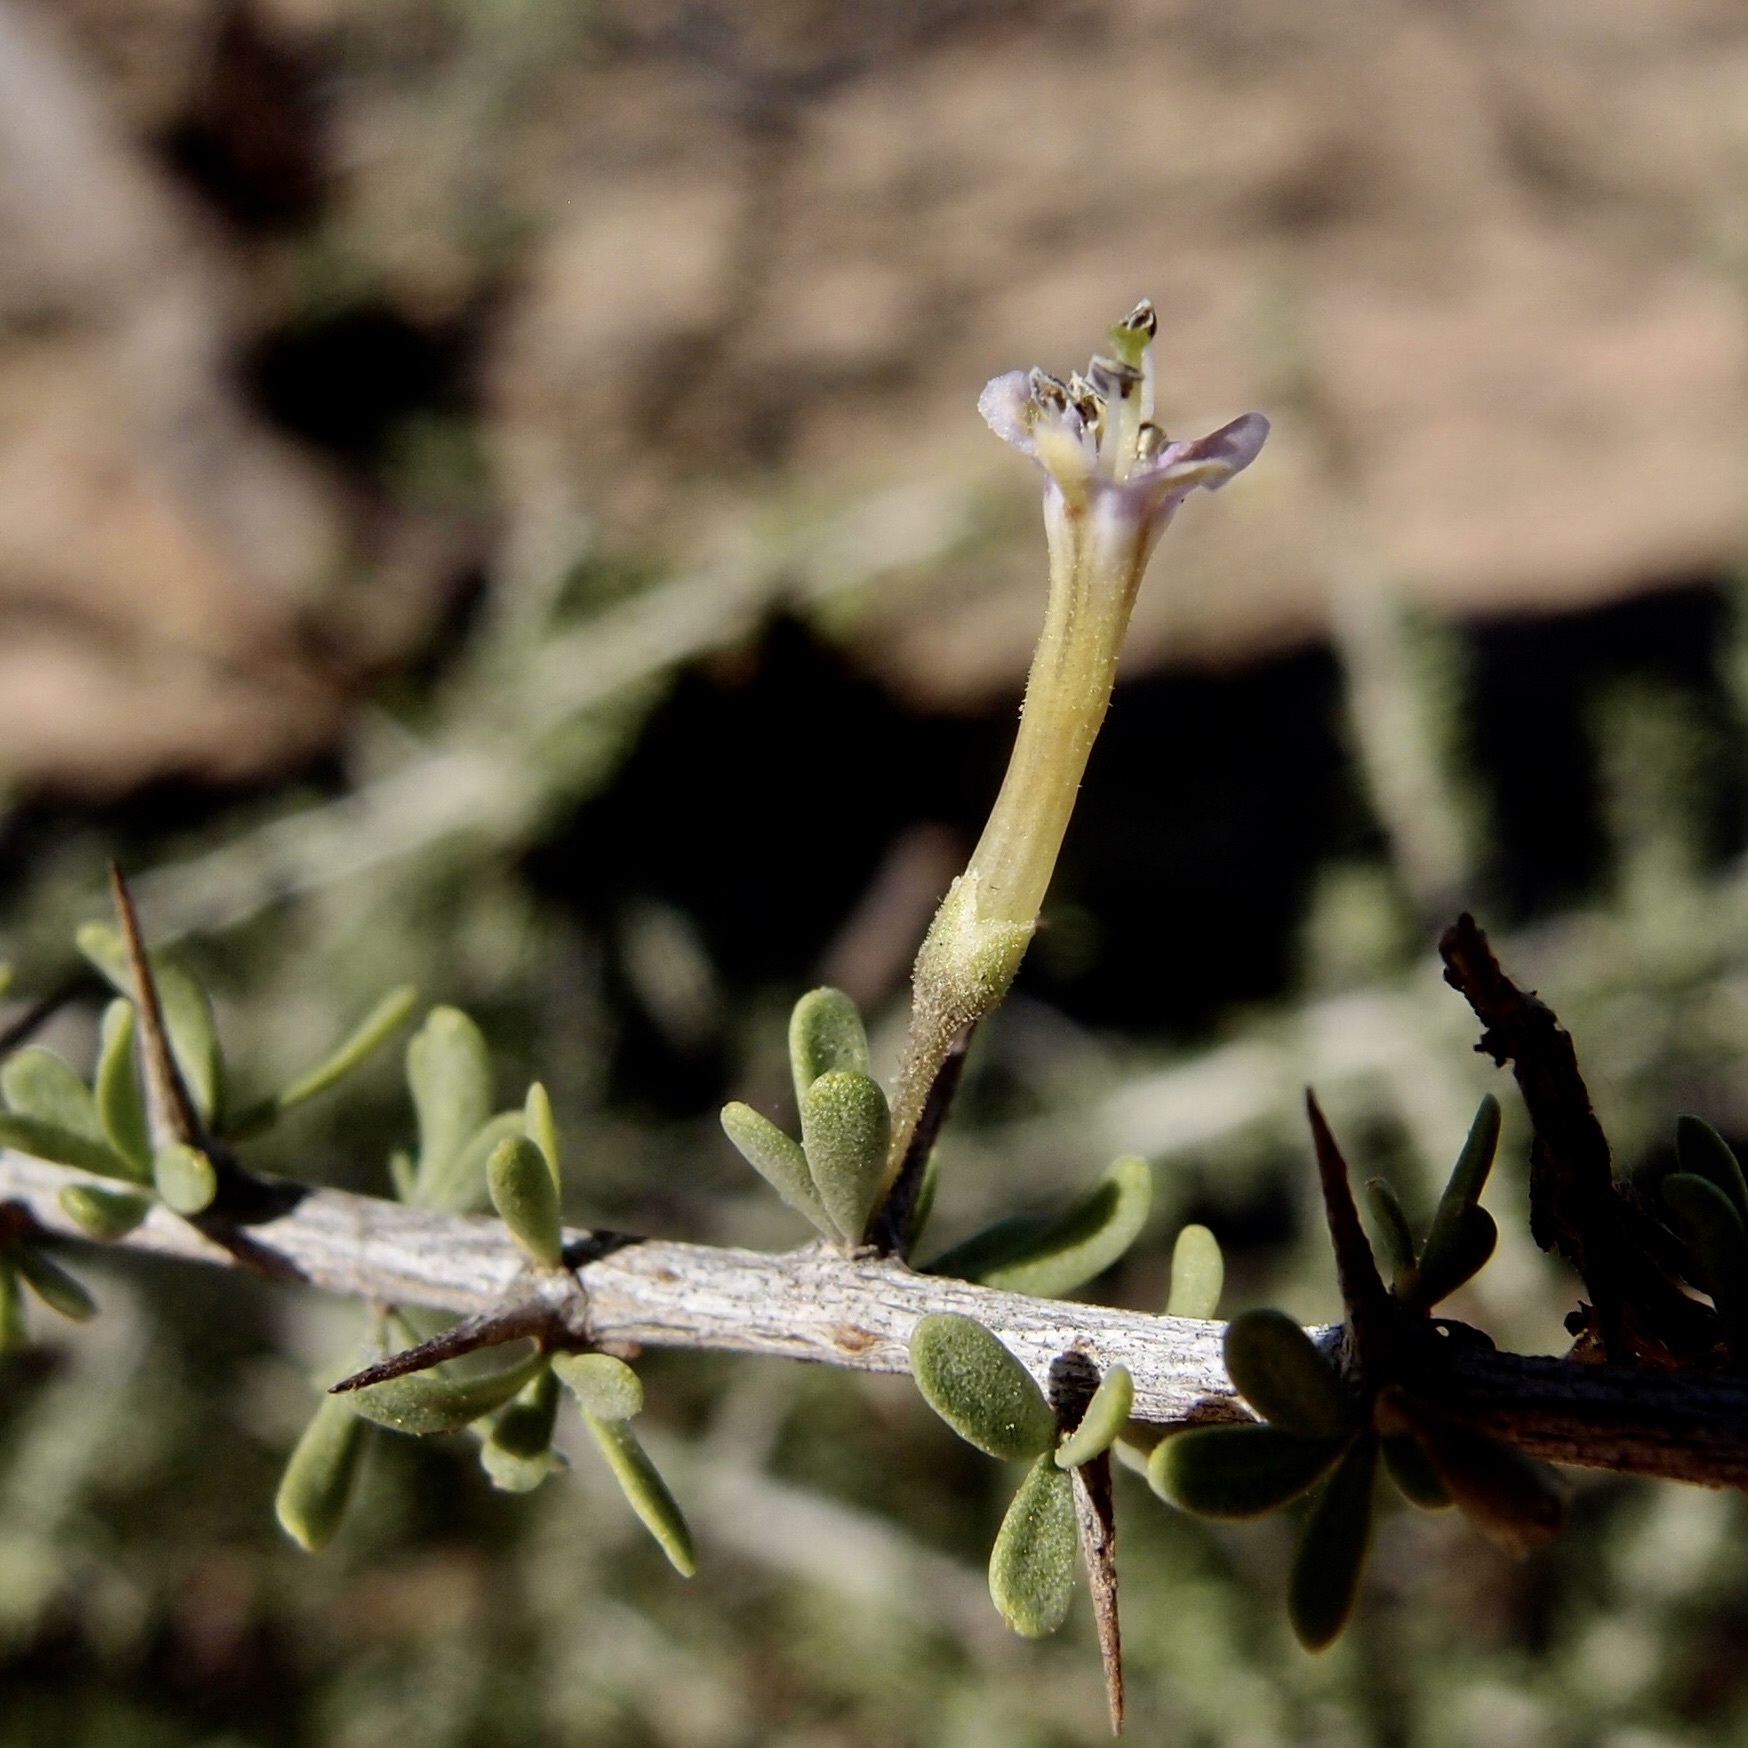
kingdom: Plantae
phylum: Tracheophyta
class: Magnoliopsida
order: Solanales
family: Solanaceae
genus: Lycium
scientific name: Lycium andersonii
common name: Water-jacket
